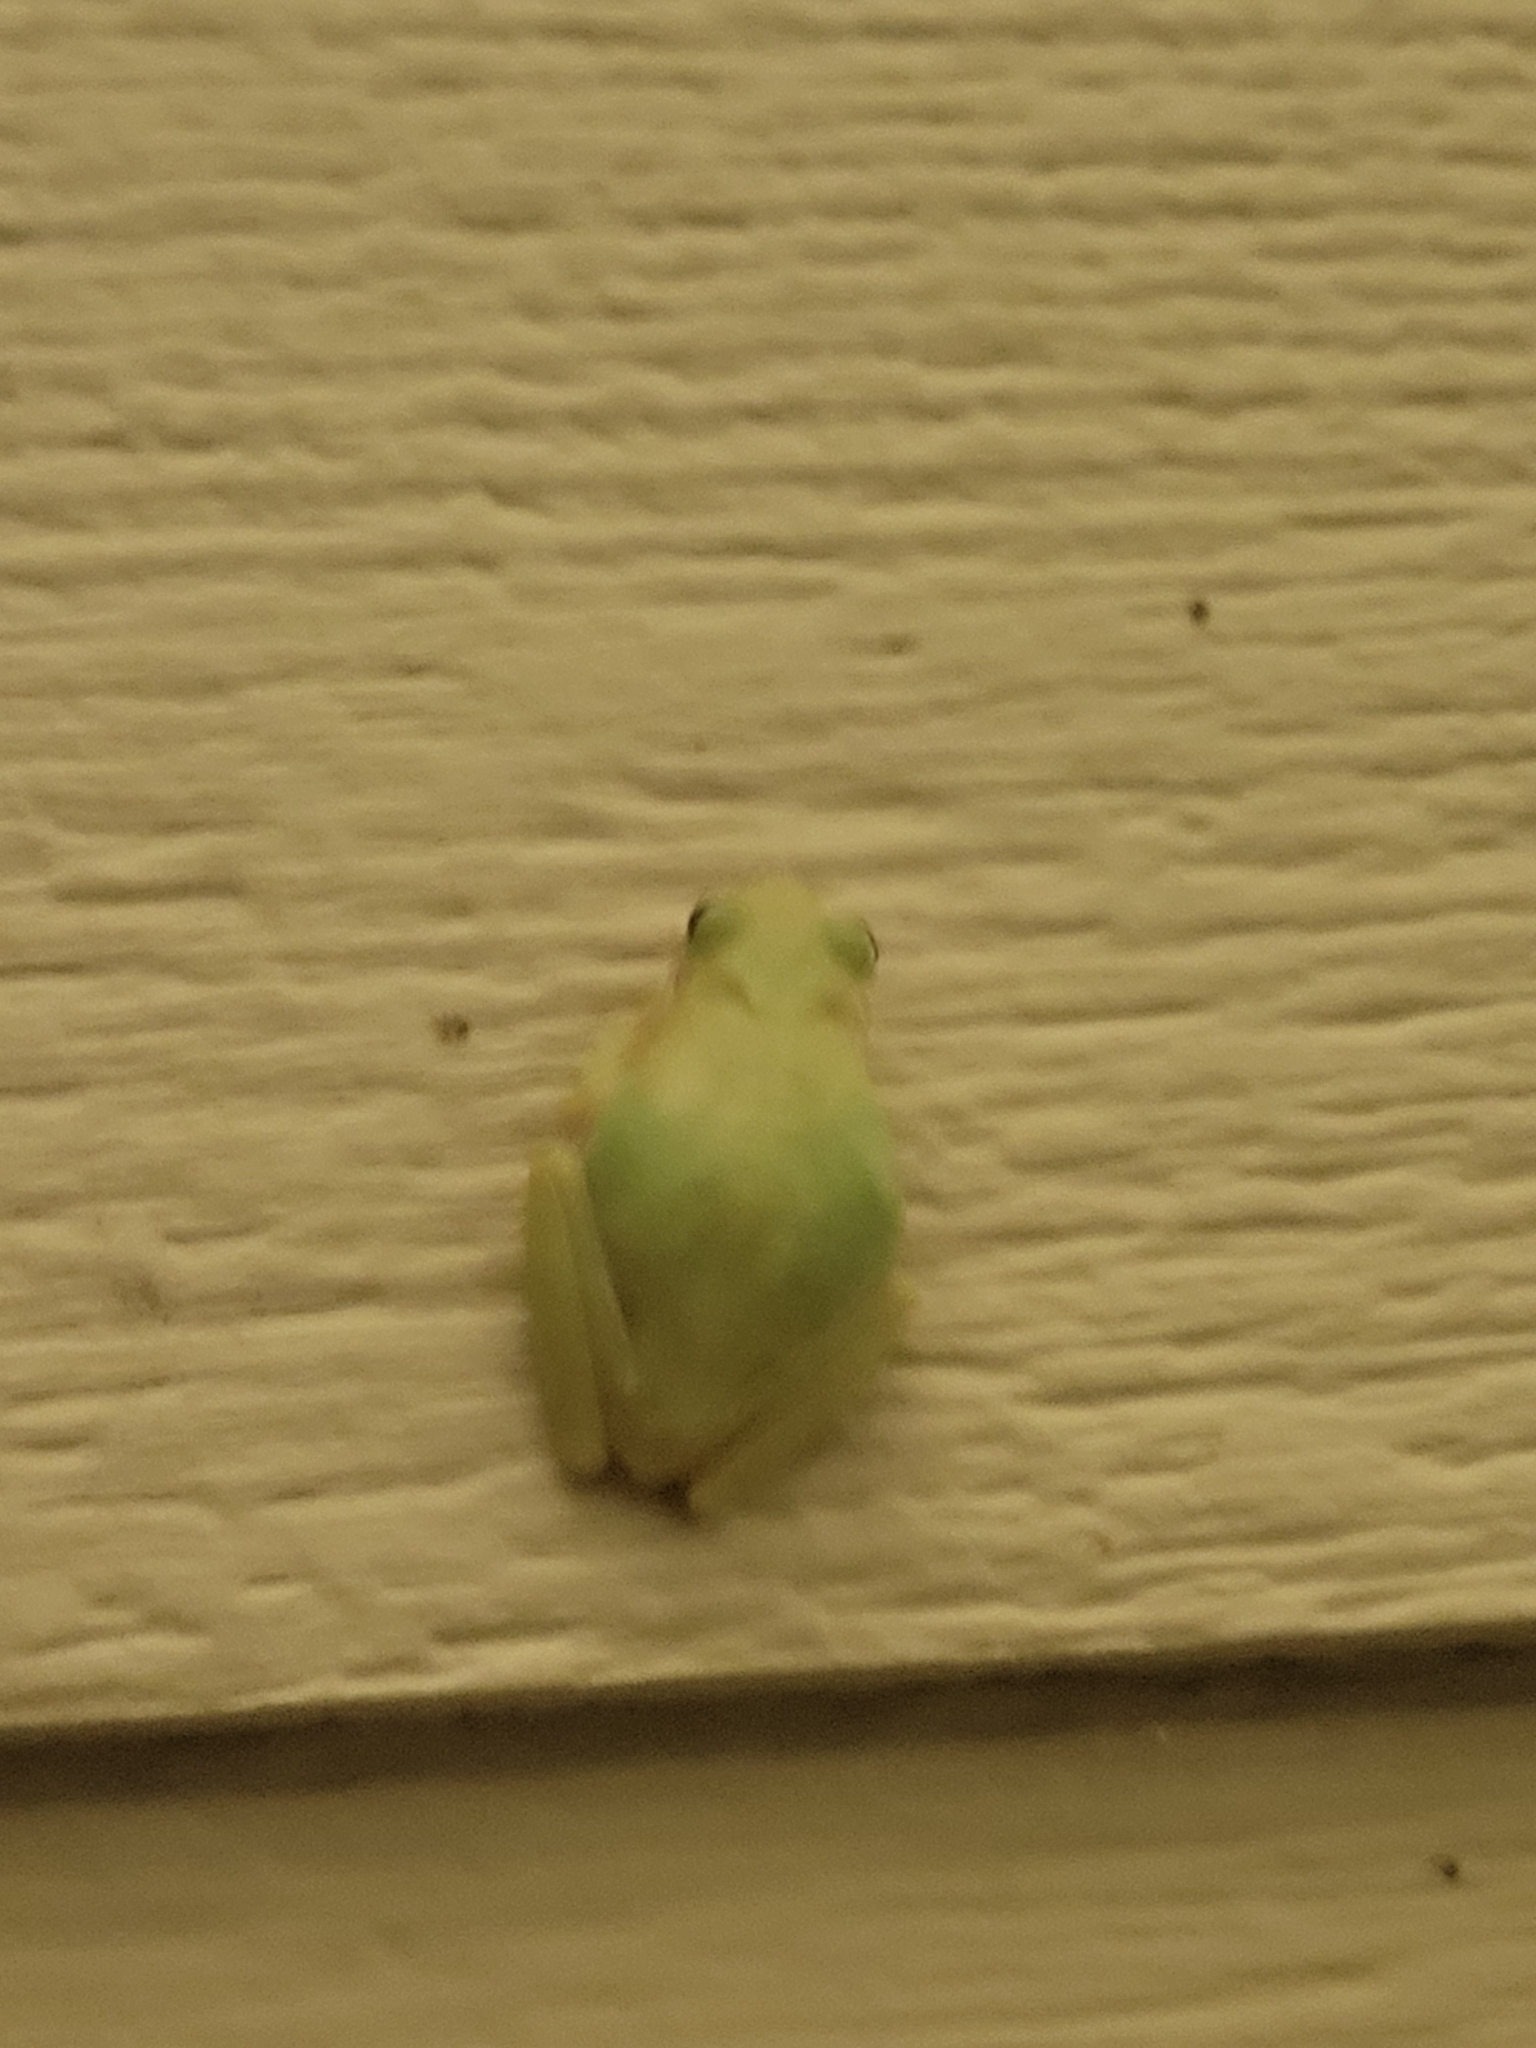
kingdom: Animalia
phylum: Chordata
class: Amphibia
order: Anura
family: Hylidae
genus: Dryophytes
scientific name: Dryophytes squirellus
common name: Squirrel treefrog
